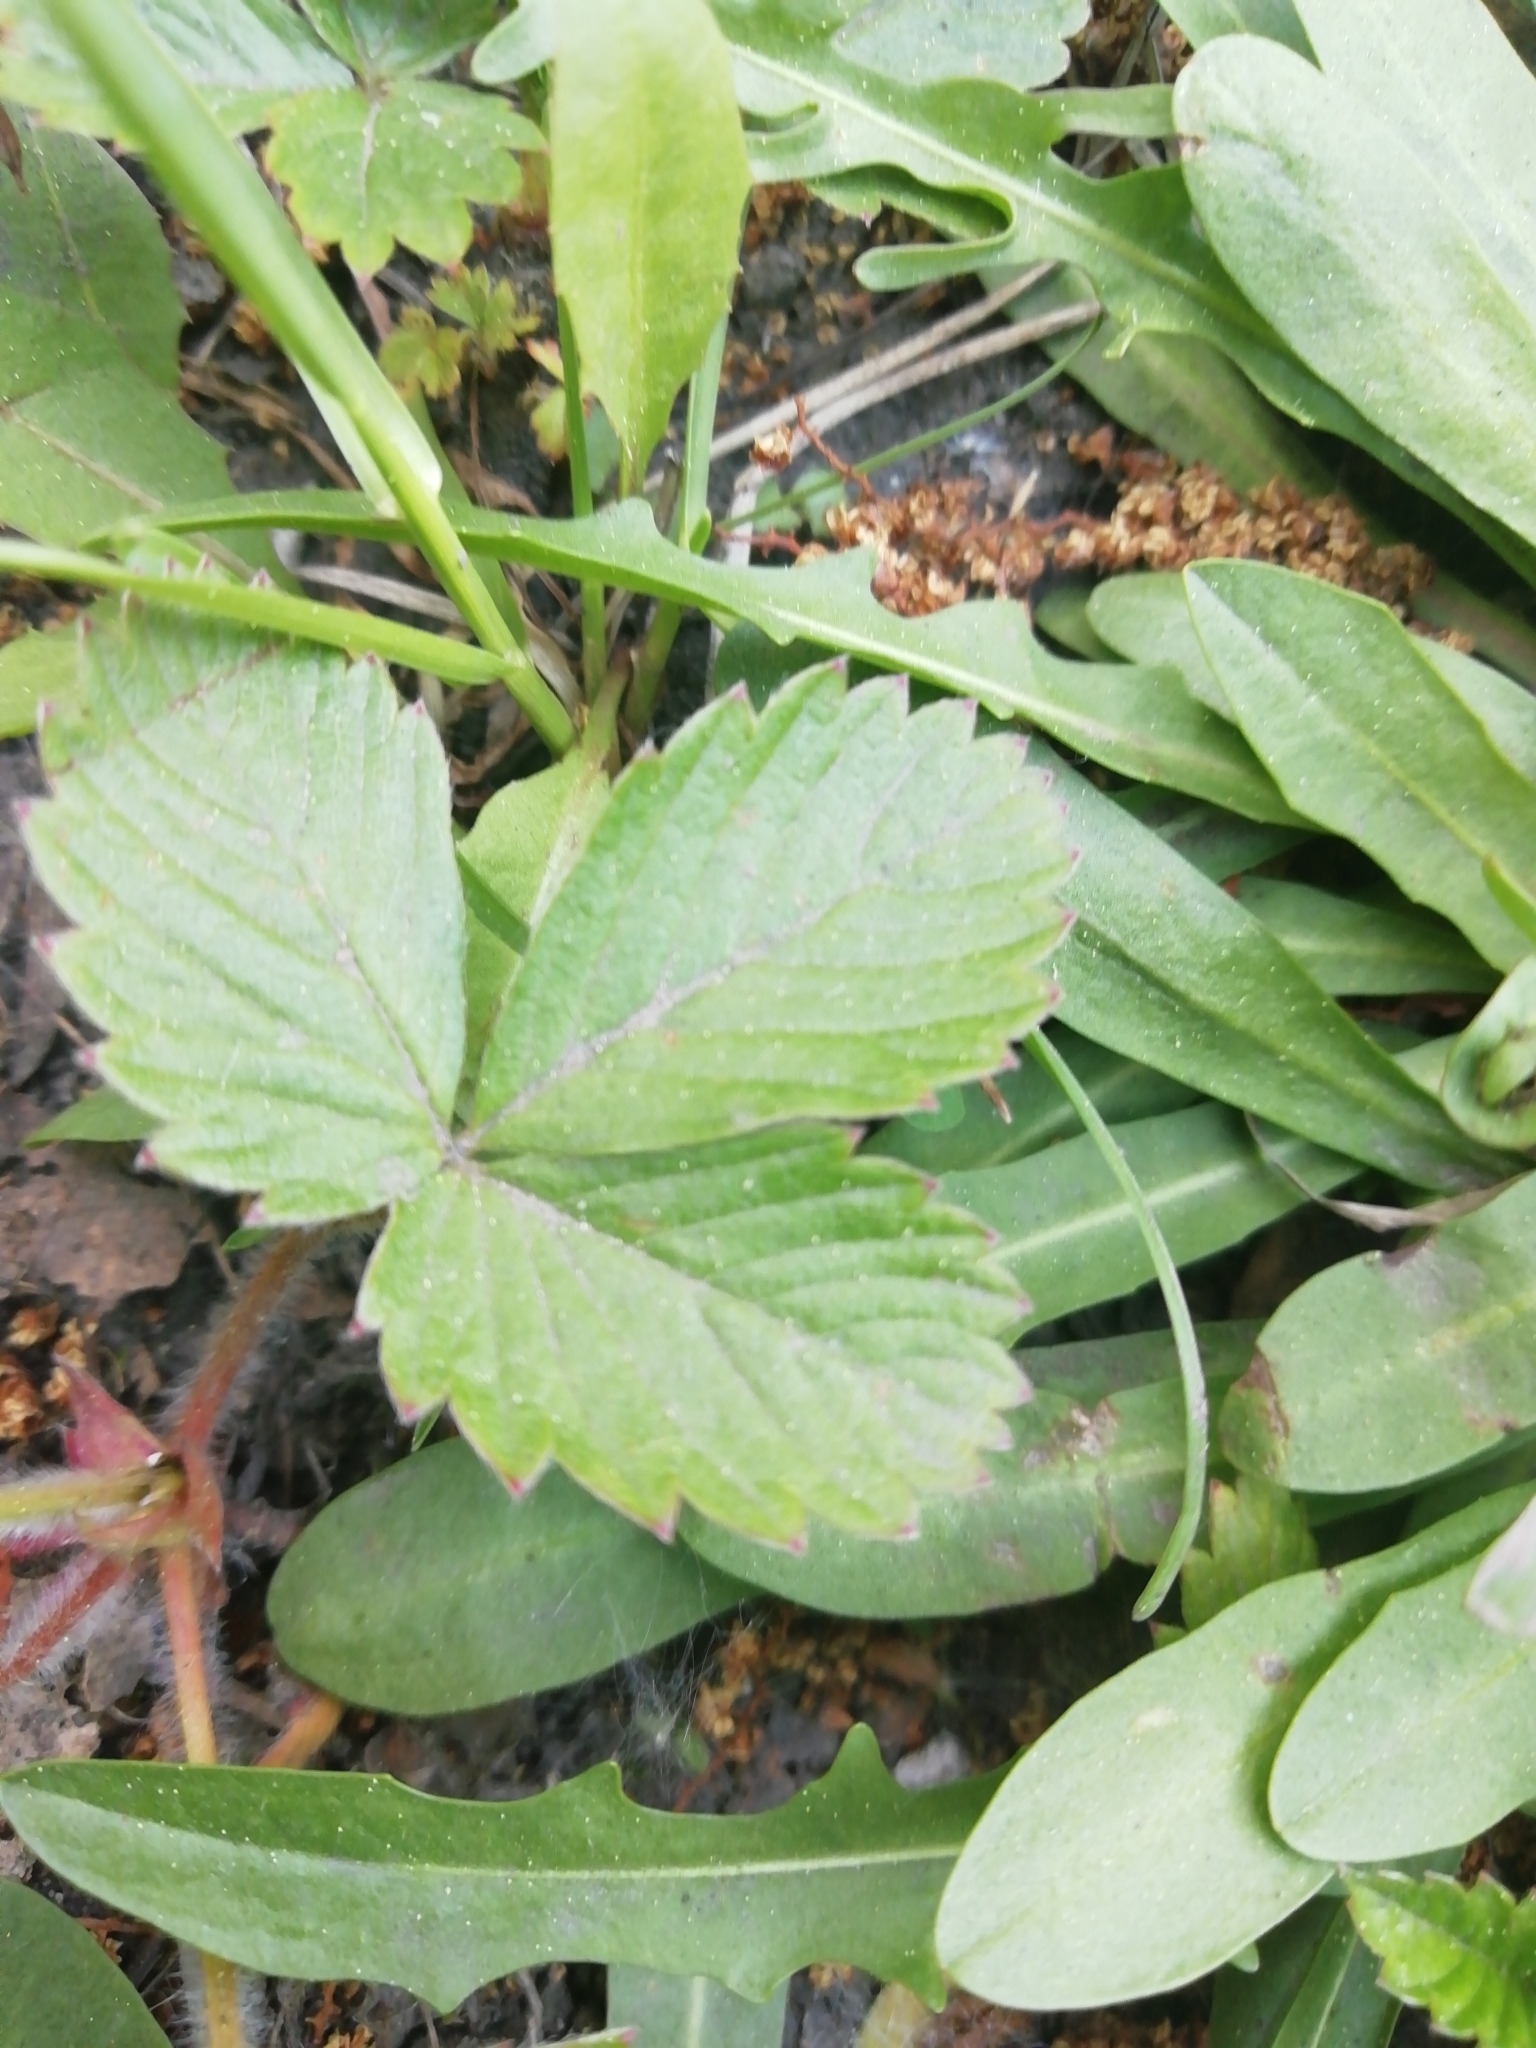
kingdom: Plantae
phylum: Tracheophyta
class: Magnoliopsida
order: Rosales
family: Rosaceae
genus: Fragaria
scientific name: Fragaria vesca
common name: Wild strawberry
